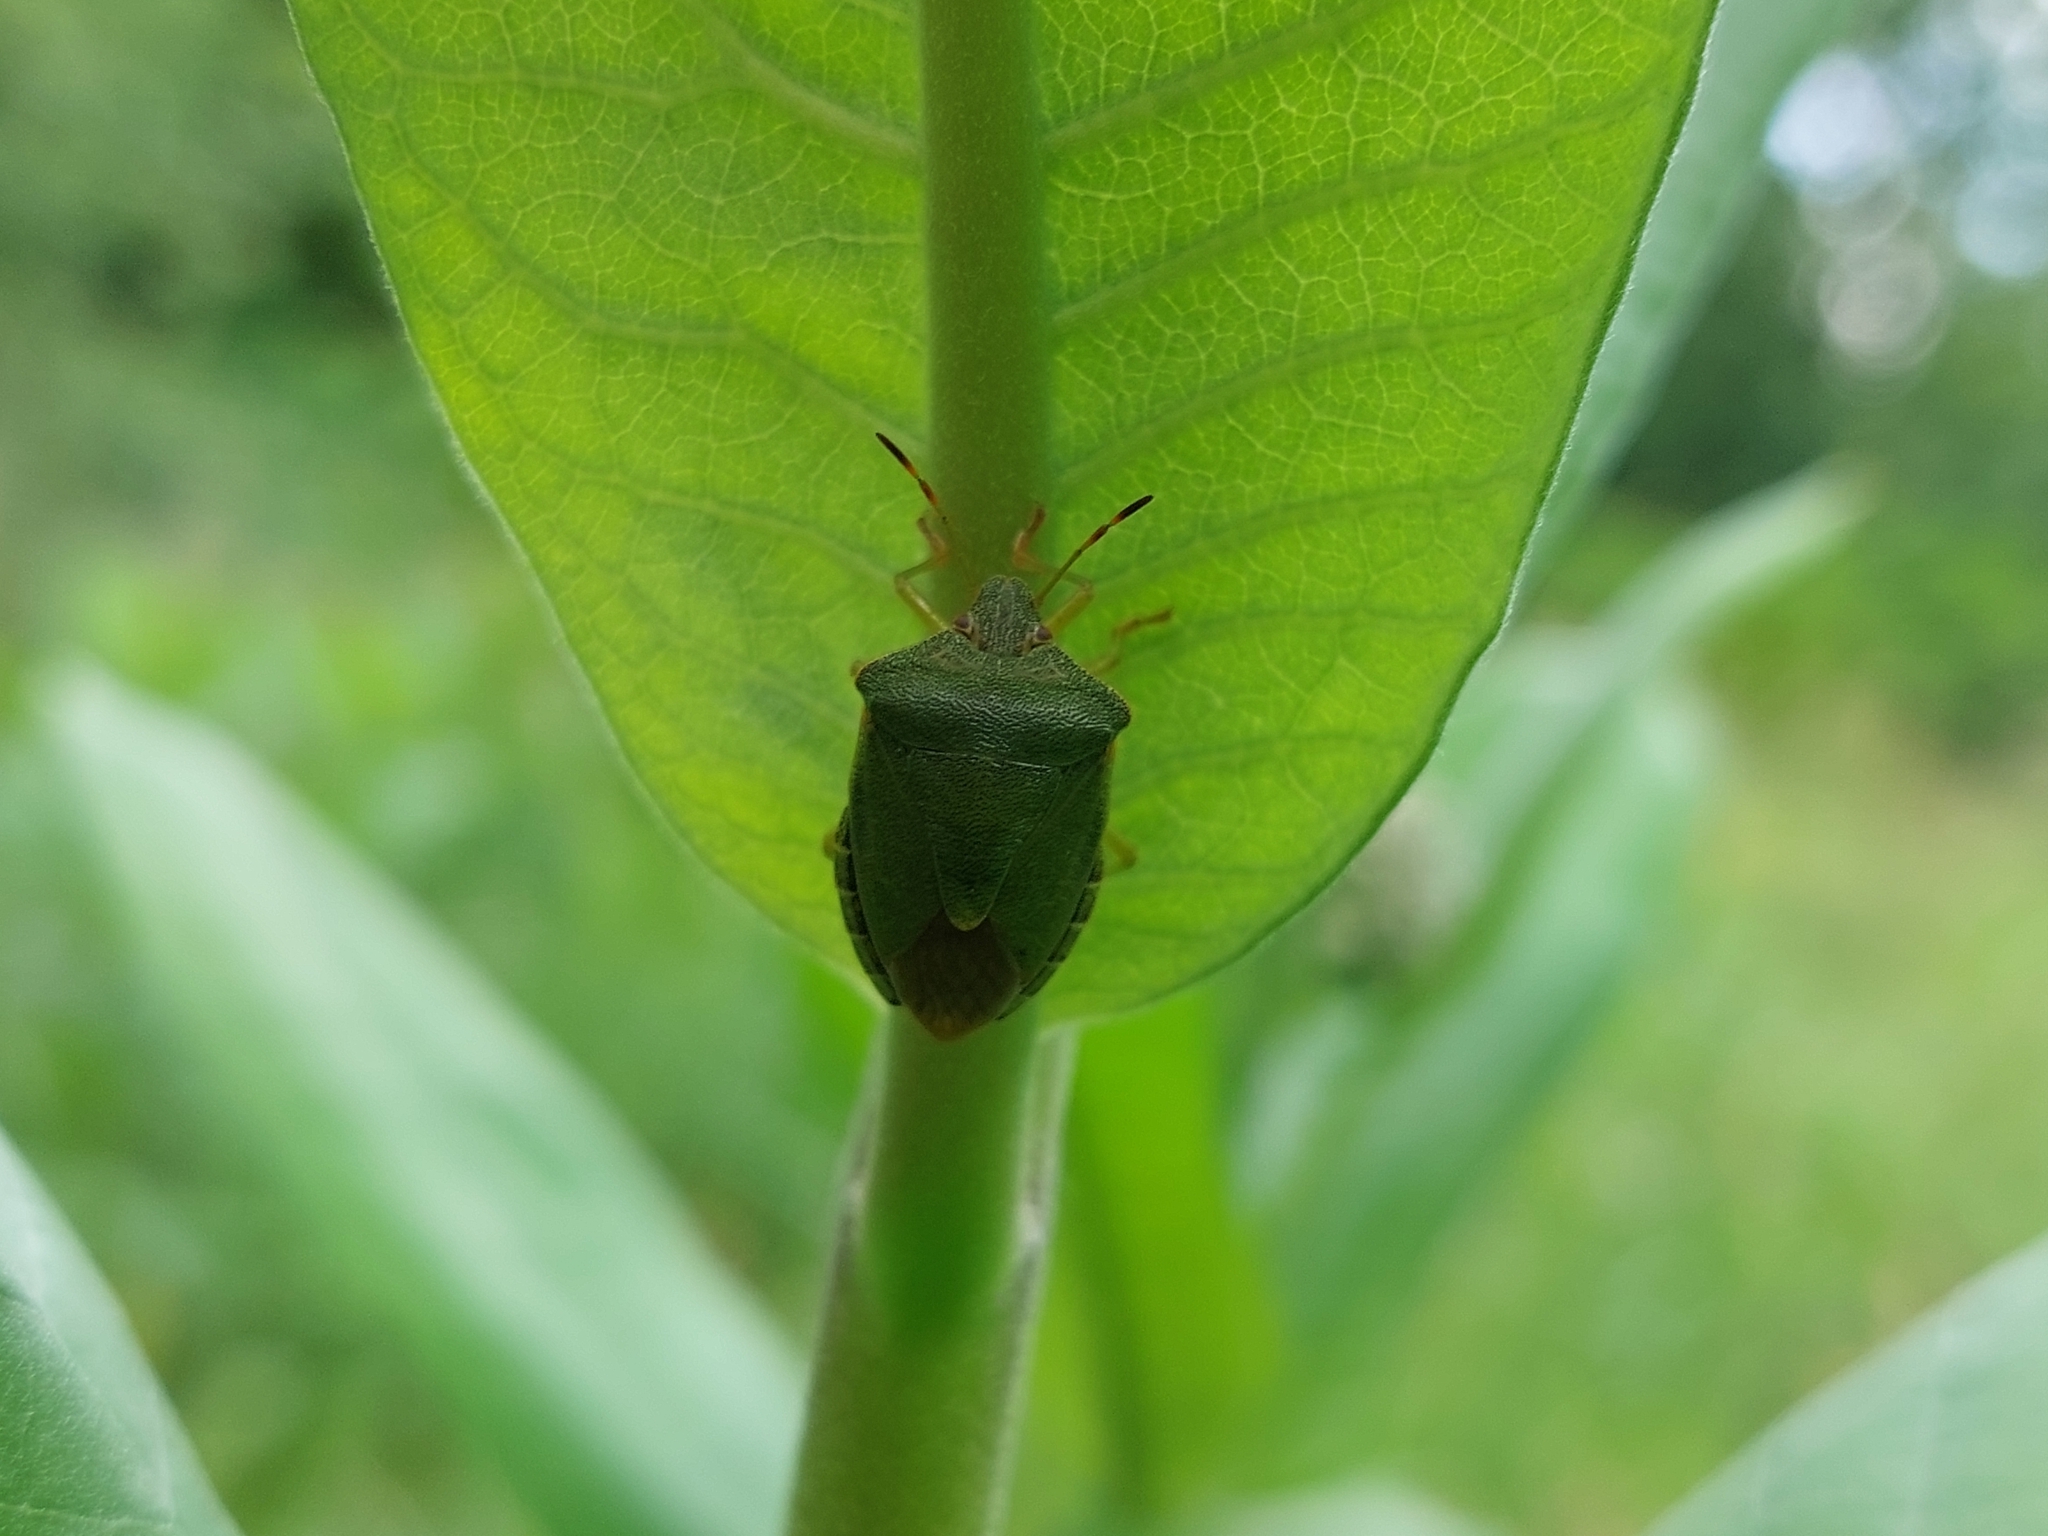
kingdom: Animalia
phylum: Arthropoda
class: Insecta
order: Hemiptera
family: Pentatomidae
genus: Palomena
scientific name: Palomena prasina
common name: Green shieldbug
